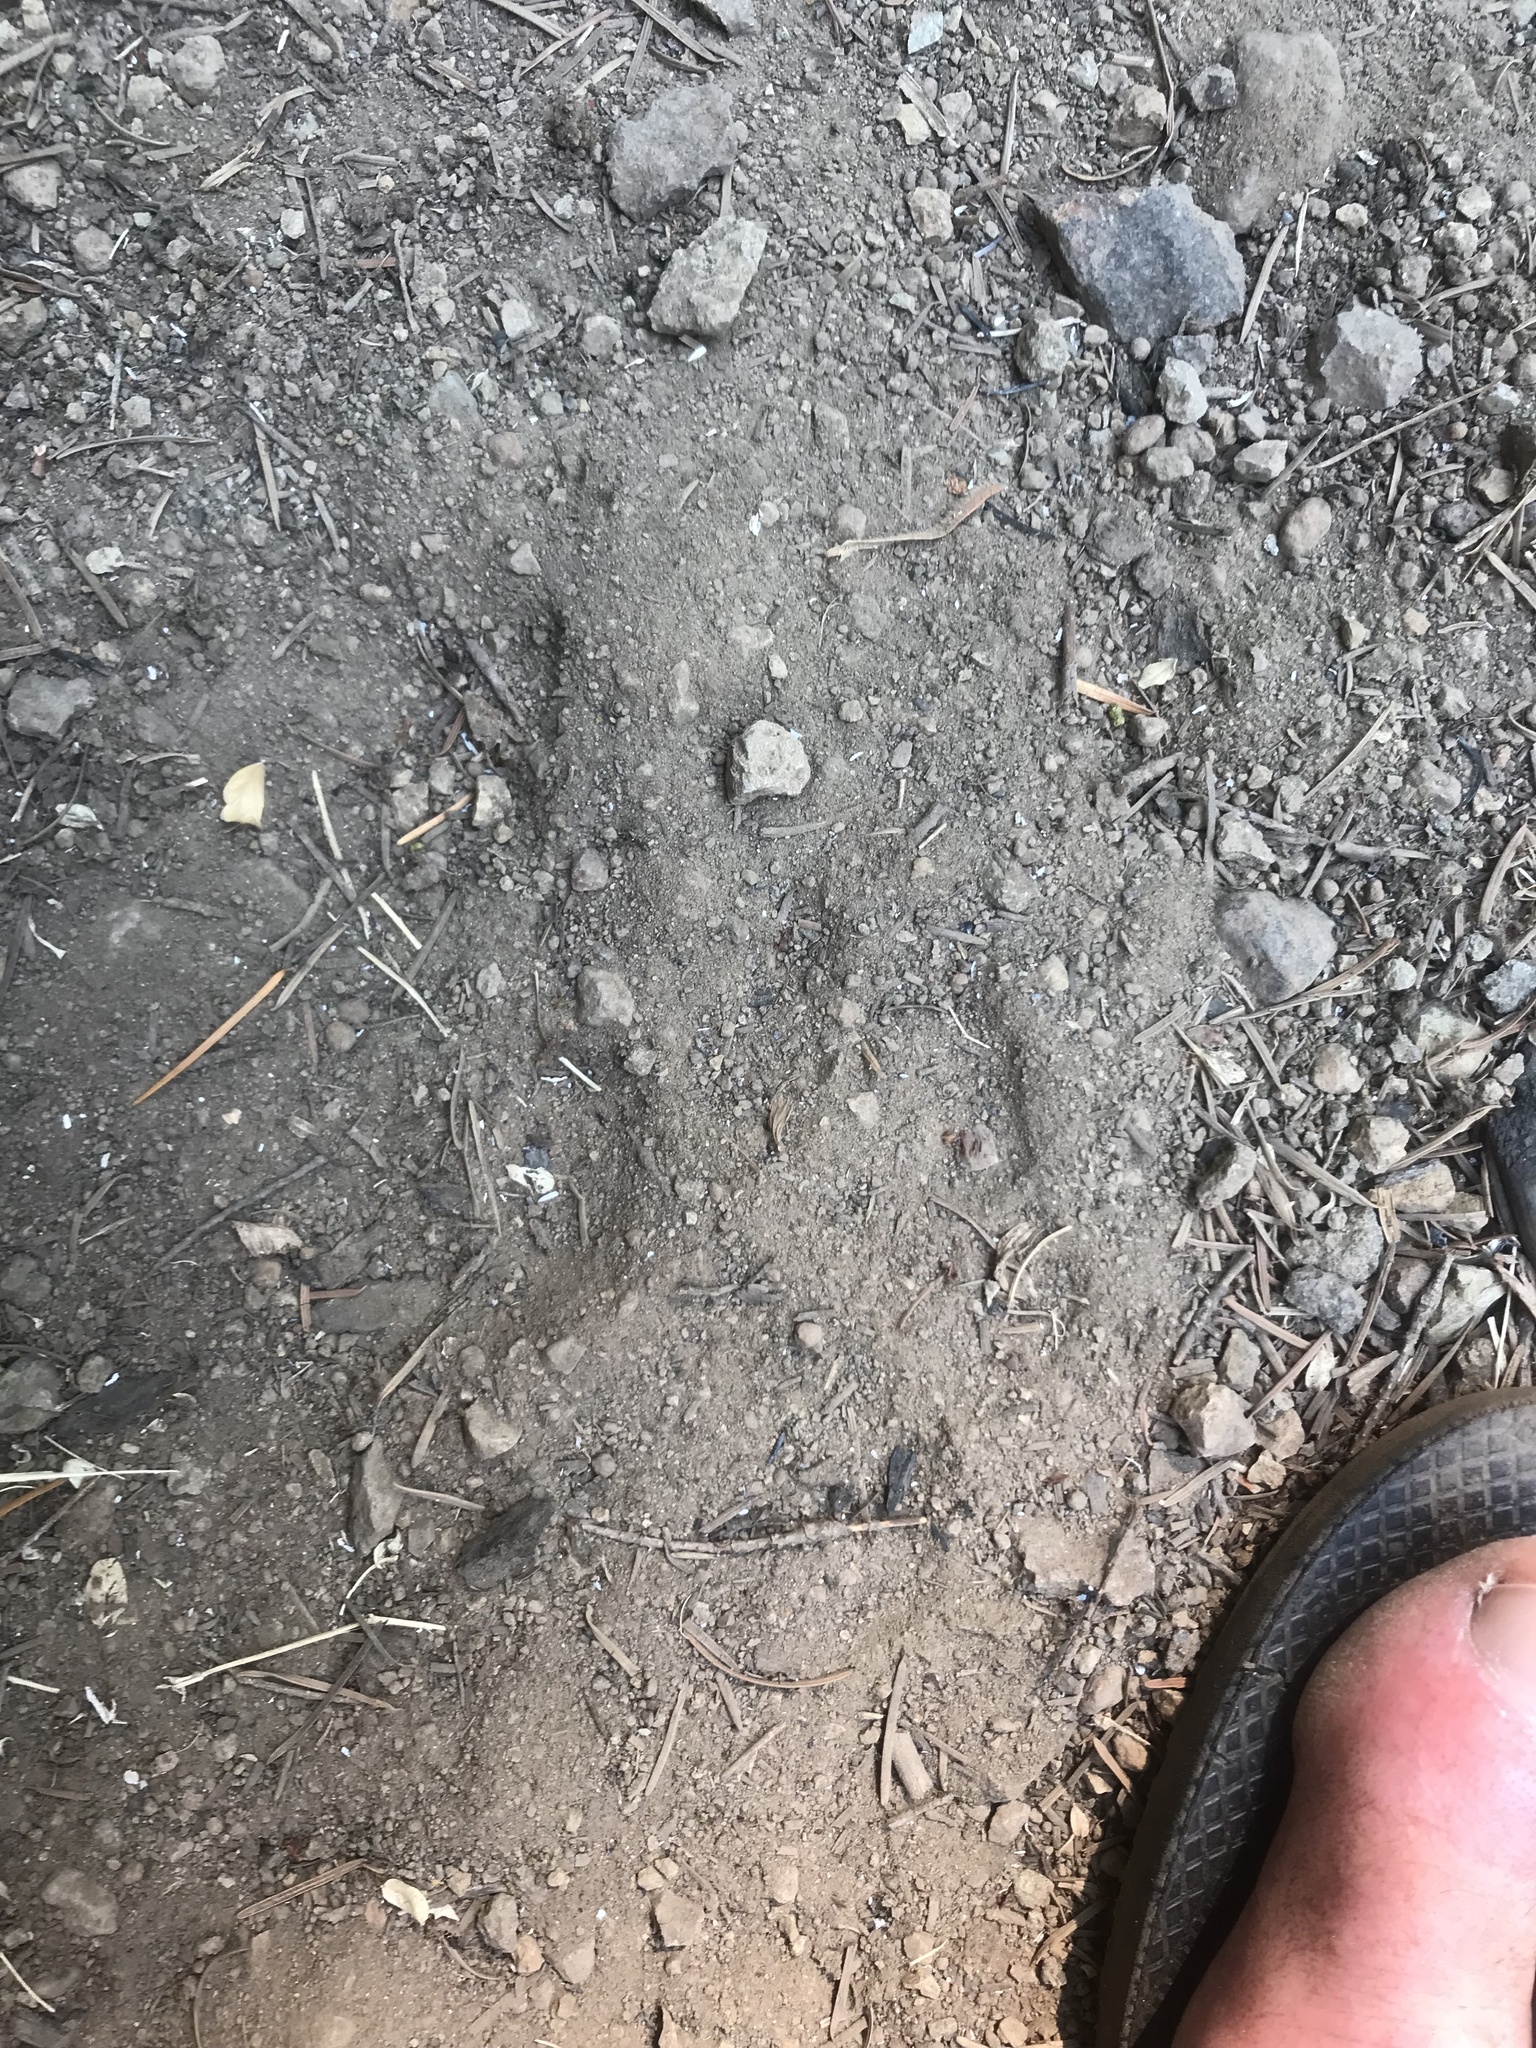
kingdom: Animalia
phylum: Chordata
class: Mammalia
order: Carnivora
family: Felidae
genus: Puma
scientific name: Puma concolor
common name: Puma
